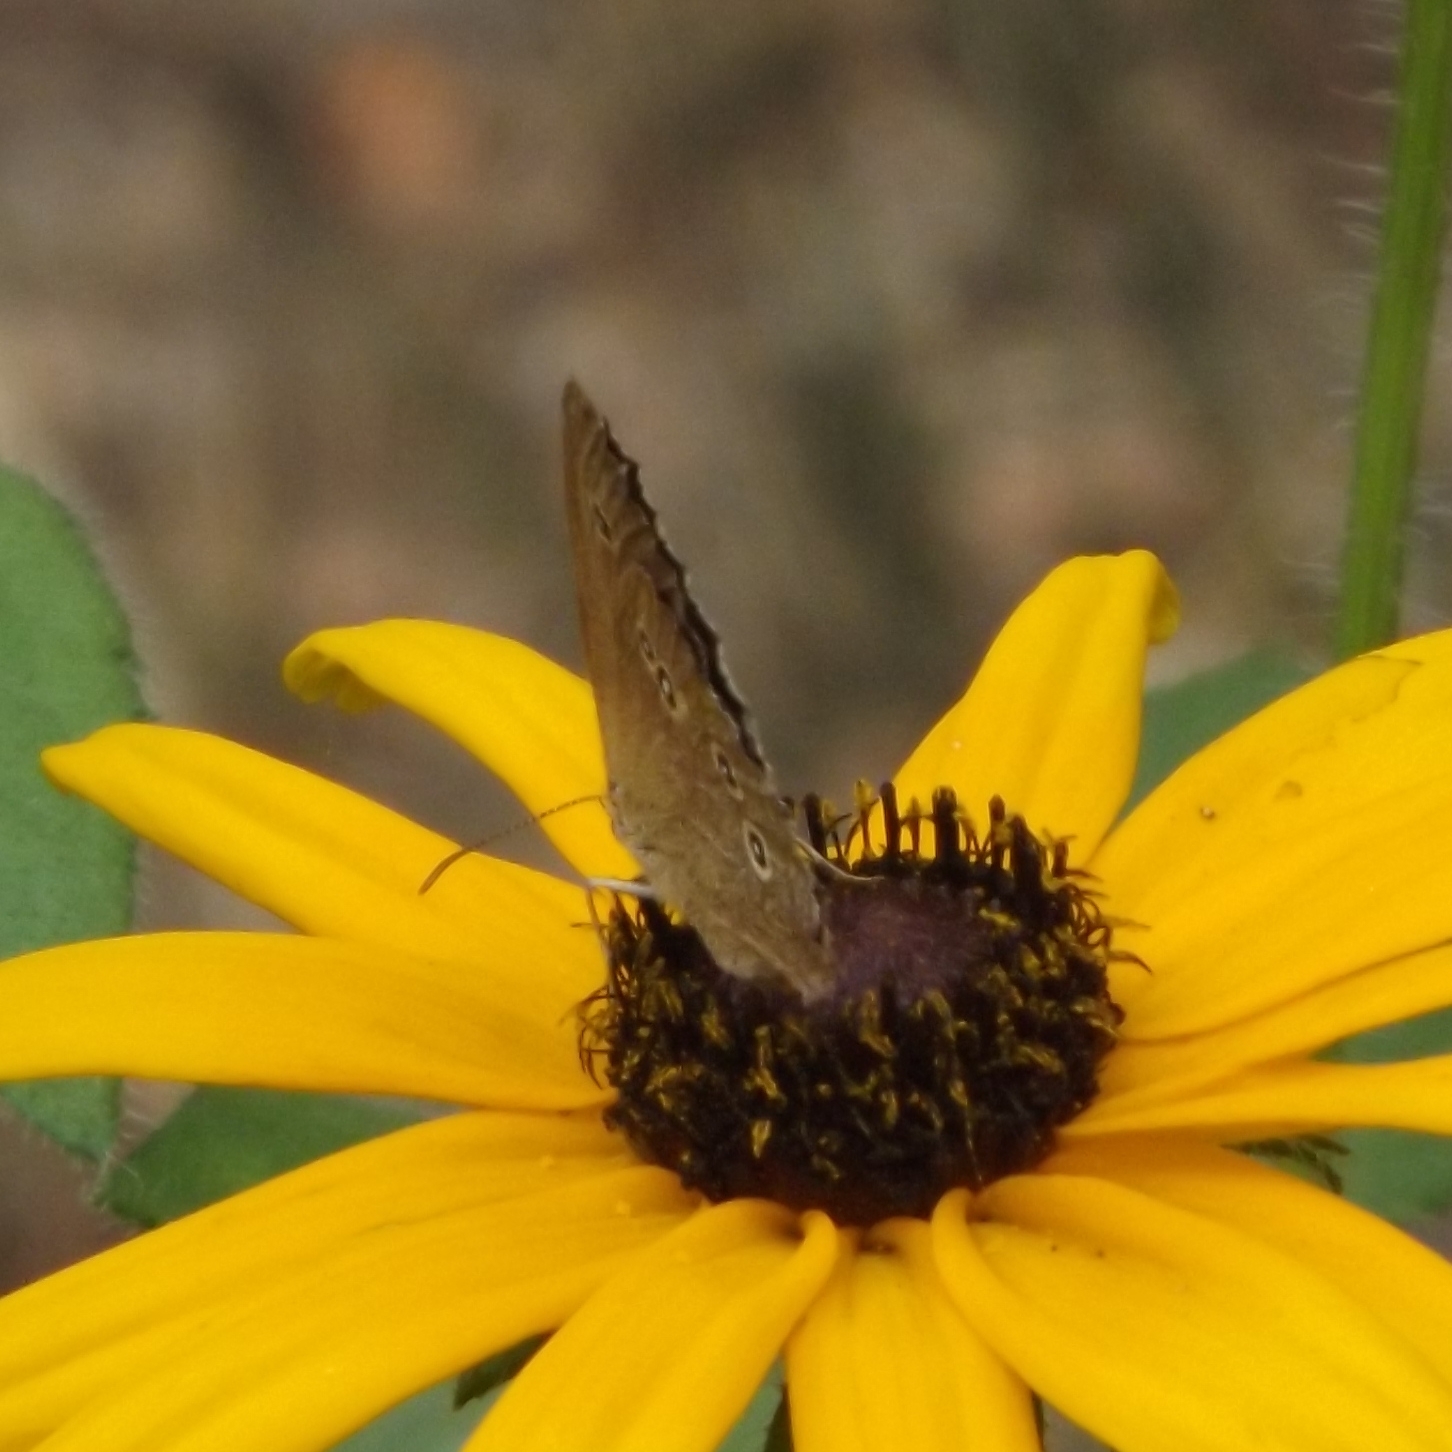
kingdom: Animalia
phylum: Arthropoda
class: Insecta
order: Lepidoptera
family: Nymphalidae
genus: Aphantopus
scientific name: Aphantopus hyperantus
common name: Ringlet
